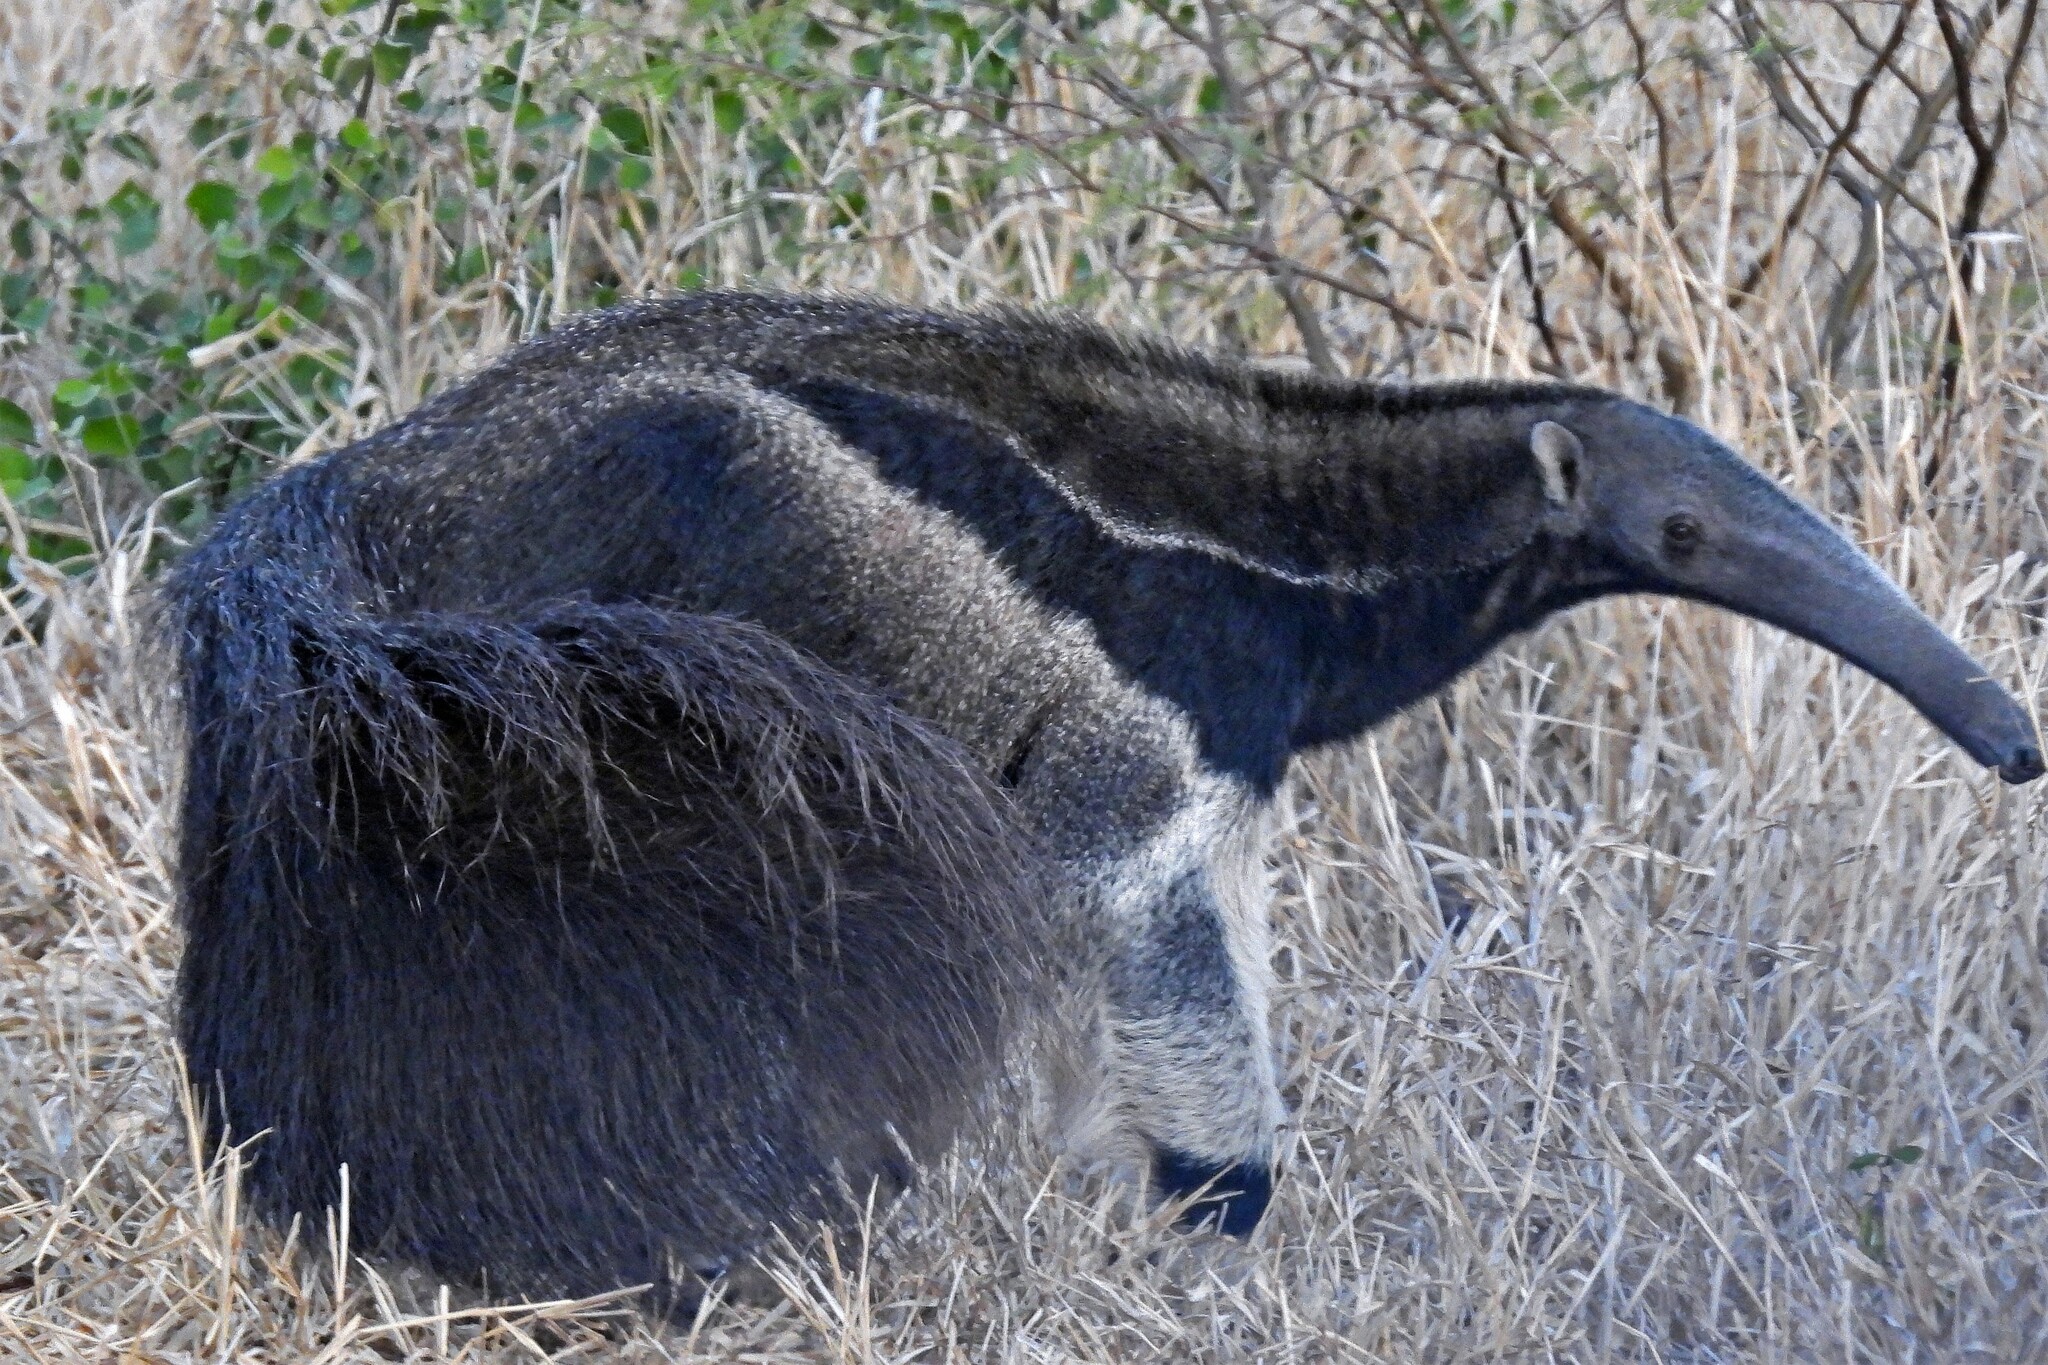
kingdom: Animalia
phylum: Chordata
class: Mammalia
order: Pilosa
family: Myrmecophagidae
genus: Myrmecophaga
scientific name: Myrmecophaga tridactyla
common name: Giant anteater
